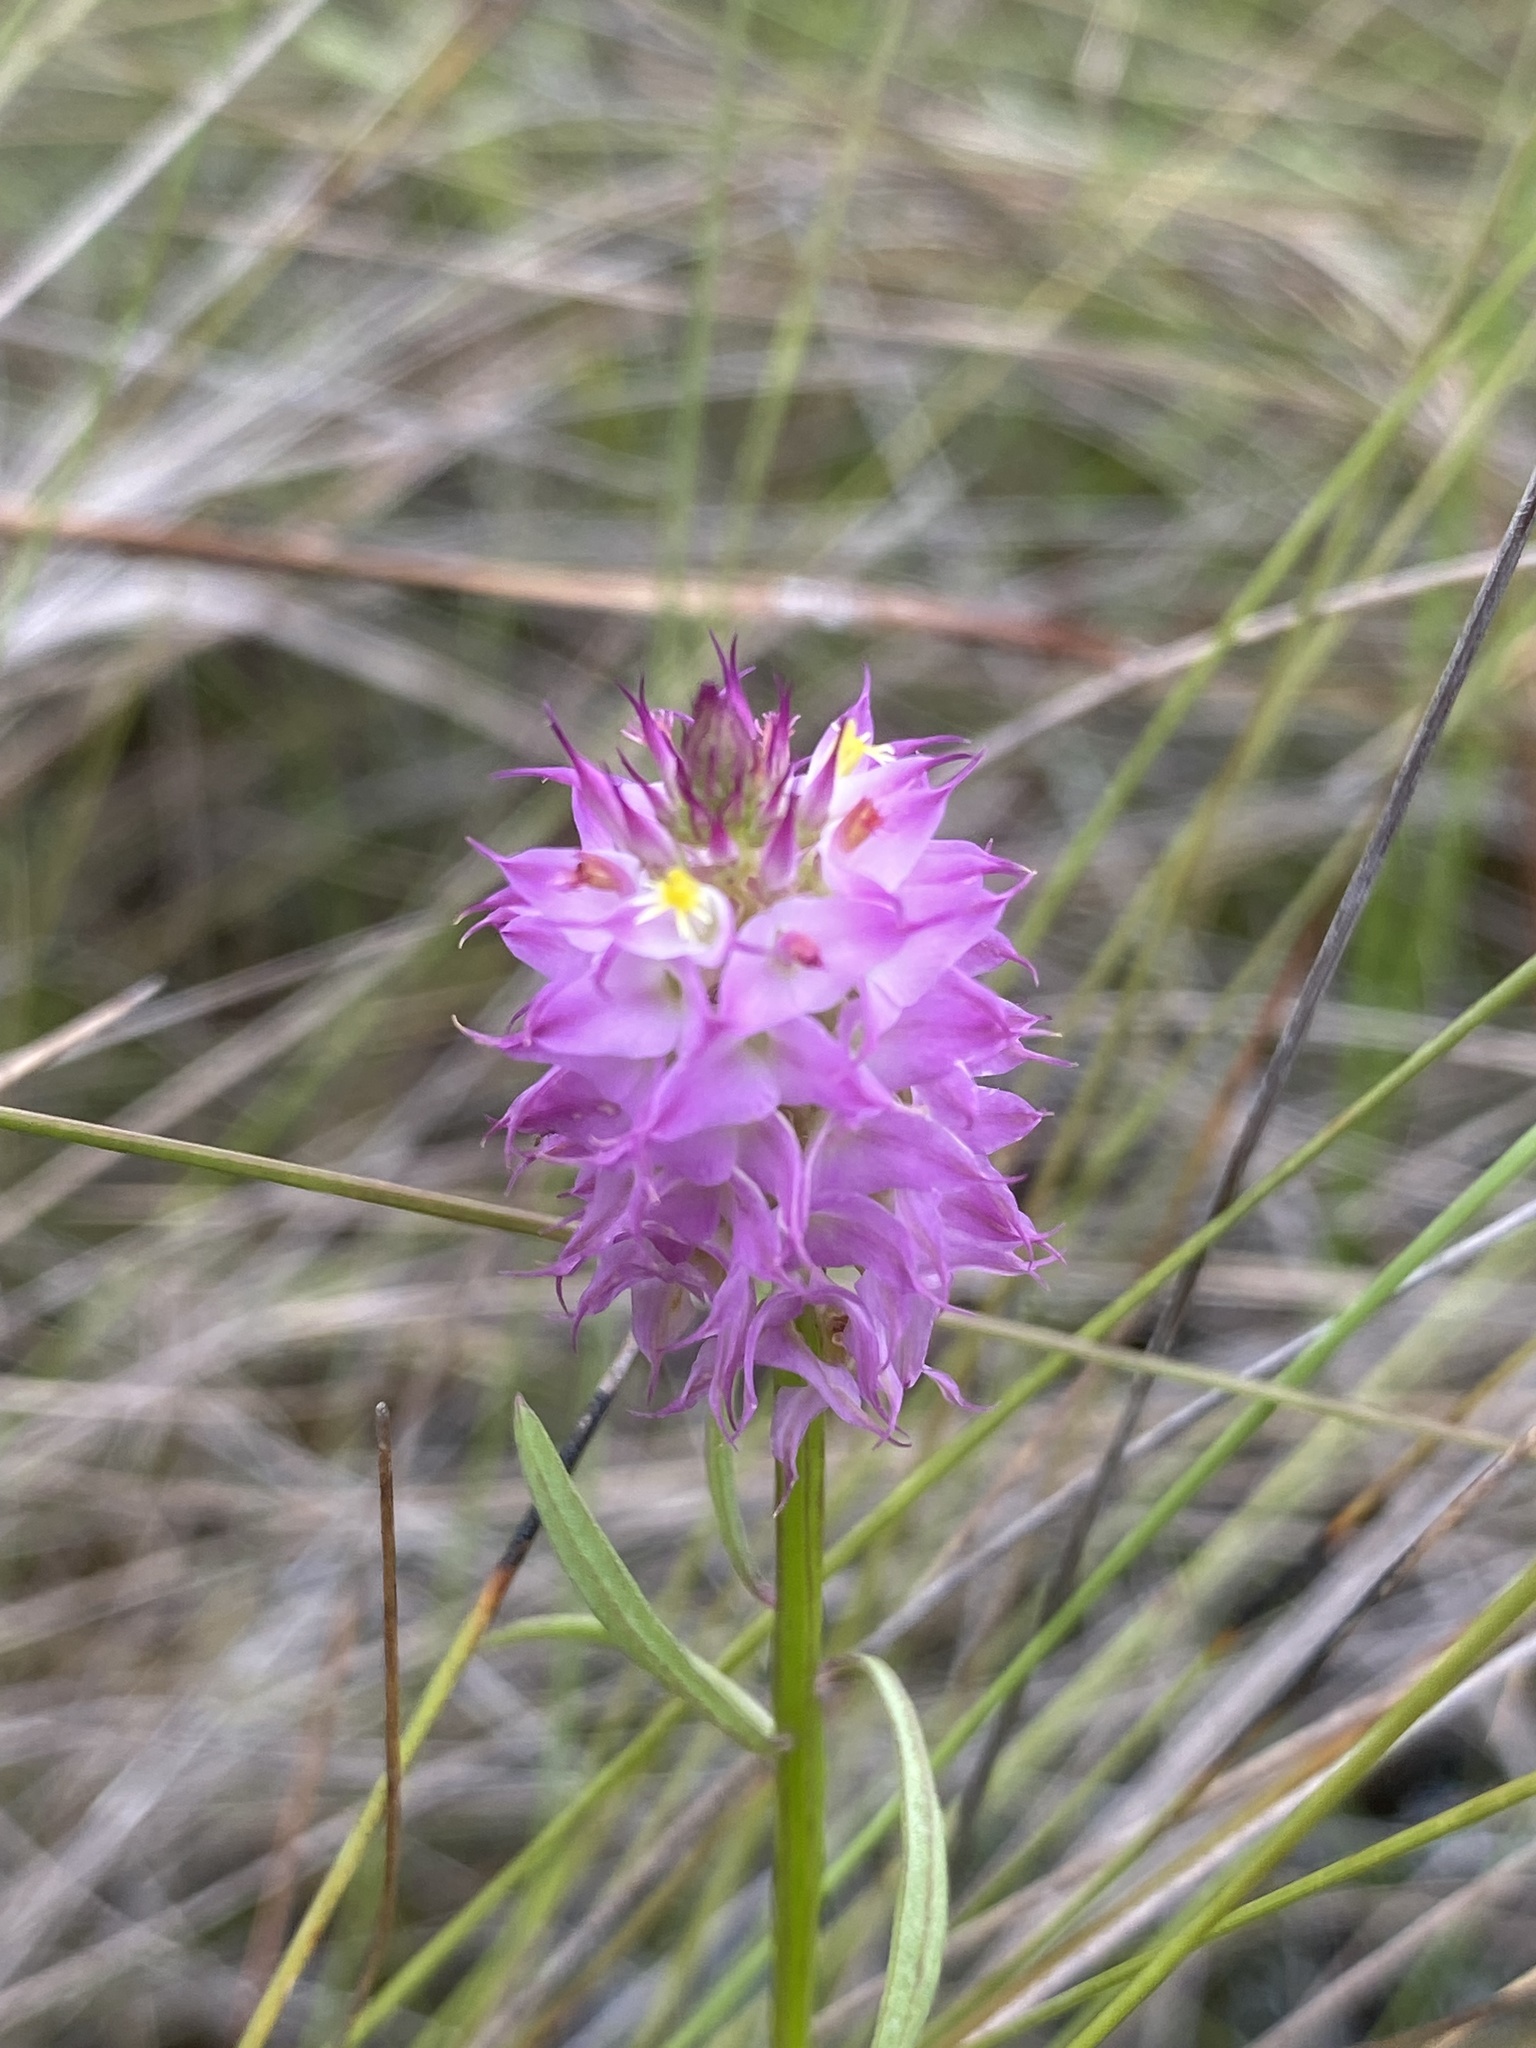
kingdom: Plantae
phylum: Tracheophyta
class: Magnoliopsida
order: Fabales
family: Polygalaceae
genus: Polygala
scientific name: Polygala cruciata
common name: Drumheads
